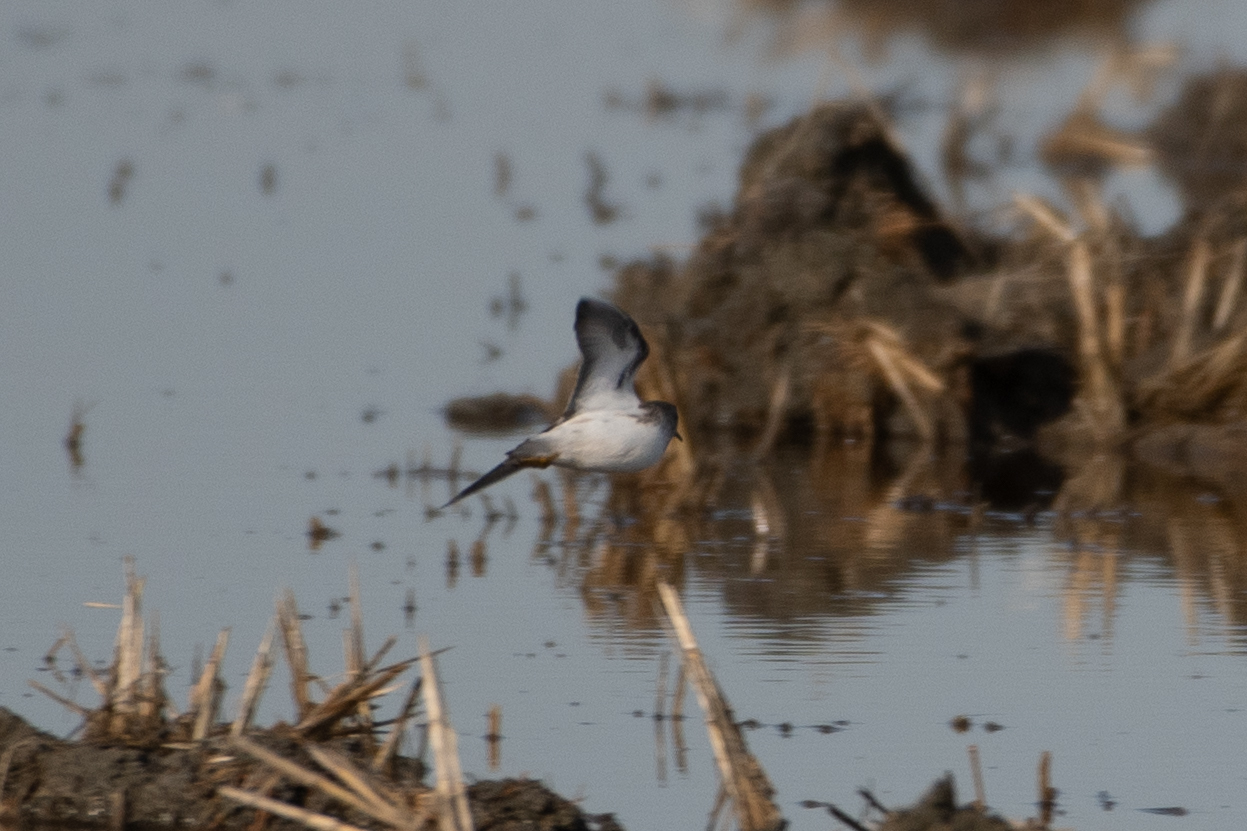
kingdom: Animalia
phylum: Chordata
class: Aves
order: Charadriiformes
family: Scolopacidae
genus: Calidris
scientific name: Calidris minutilla
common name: Least sandpiper
